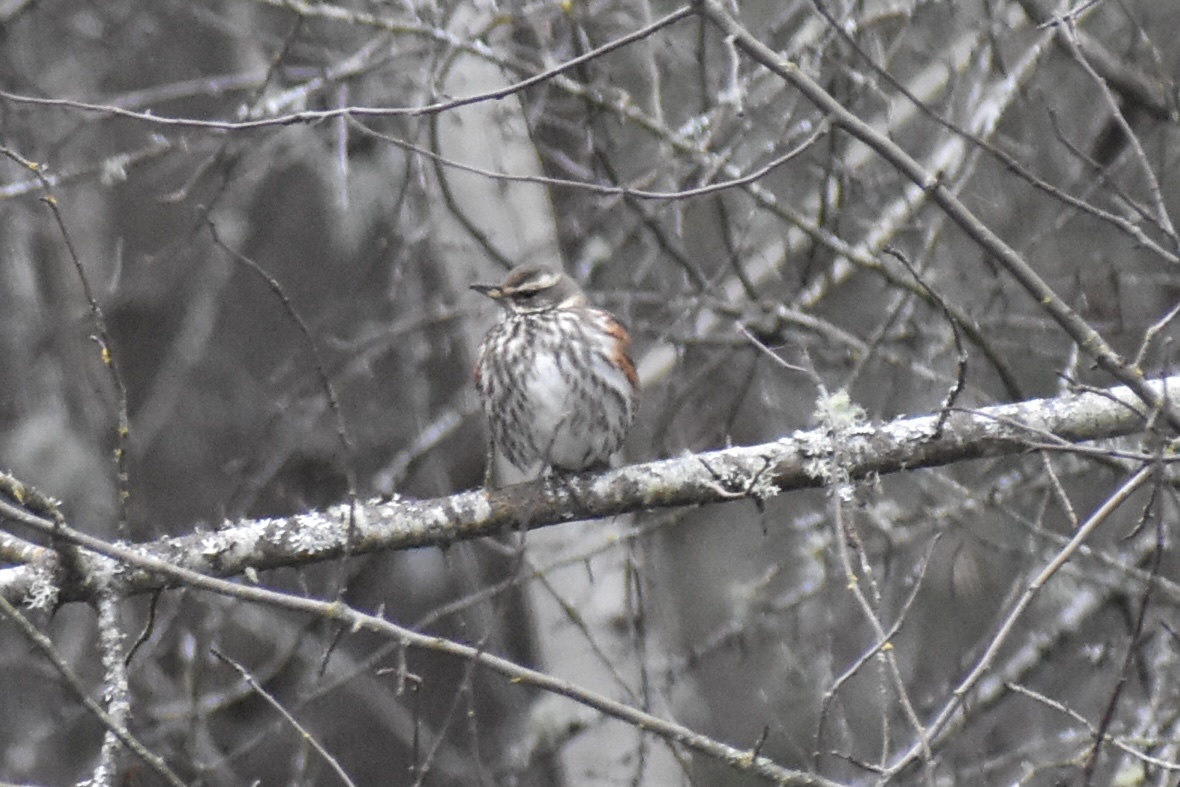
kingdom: Animalia
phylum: Chordata
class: Aves
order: Passeriformes
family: Turdidae
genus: Turdus
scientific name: Turdus iliacus
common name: Redwing
